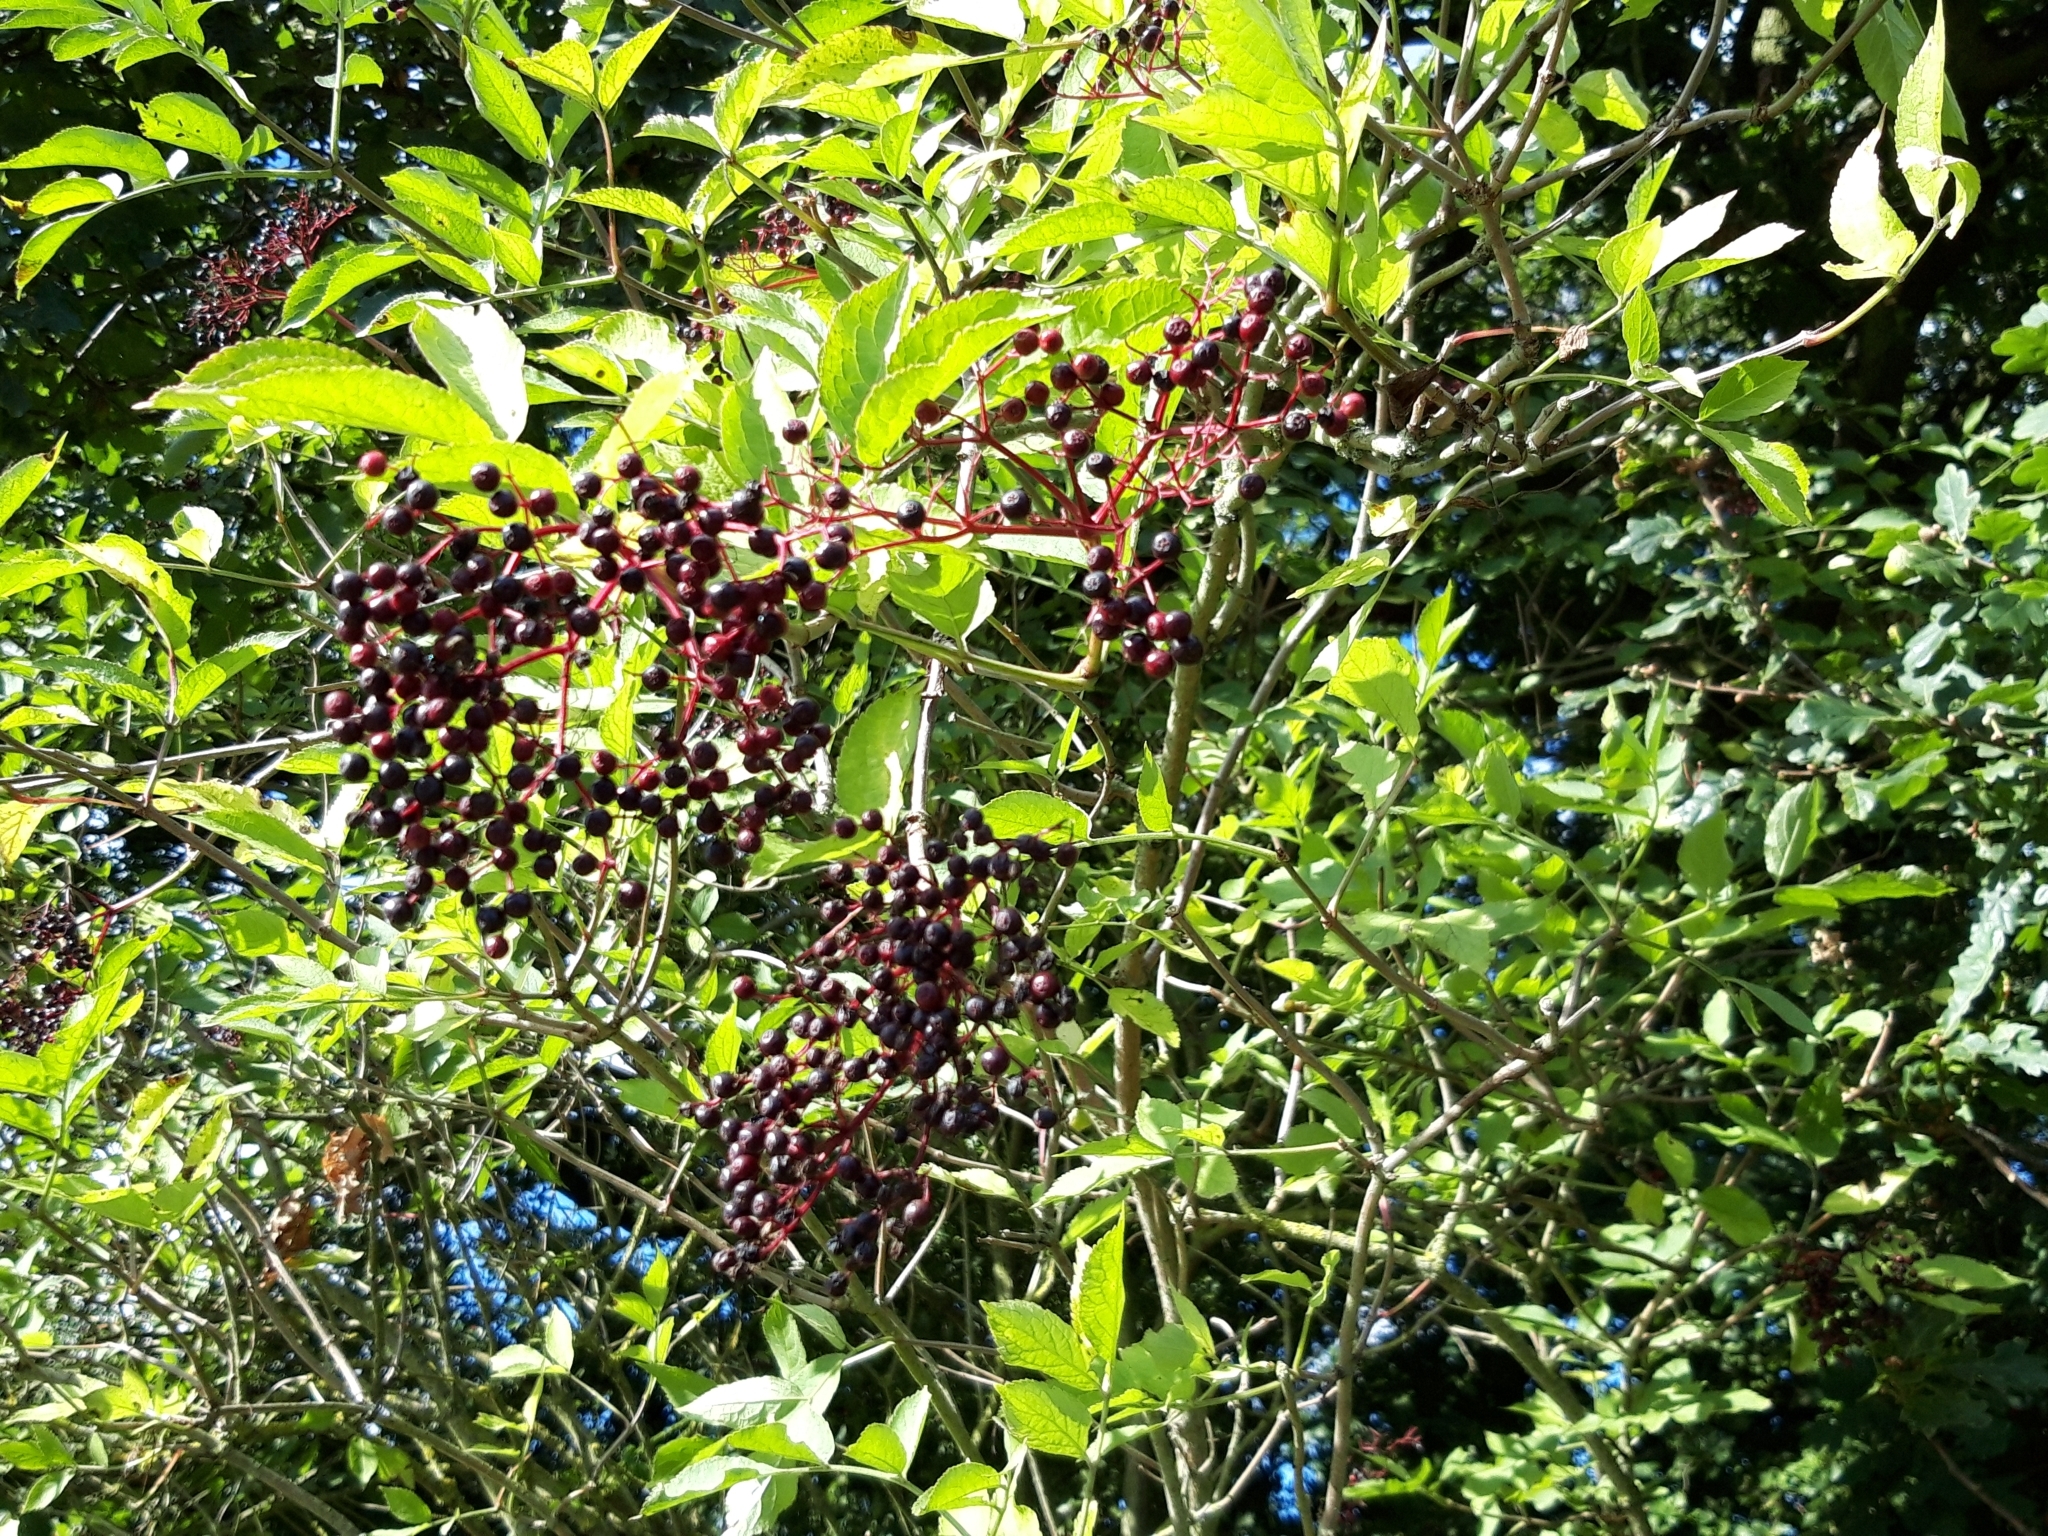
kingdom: Plantae
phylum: Tracheophyta
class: Magnoliopsida
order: Dipsacales
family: Viburnaceae
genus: Sambucus
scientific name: Sambucus nigra
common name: Elder
